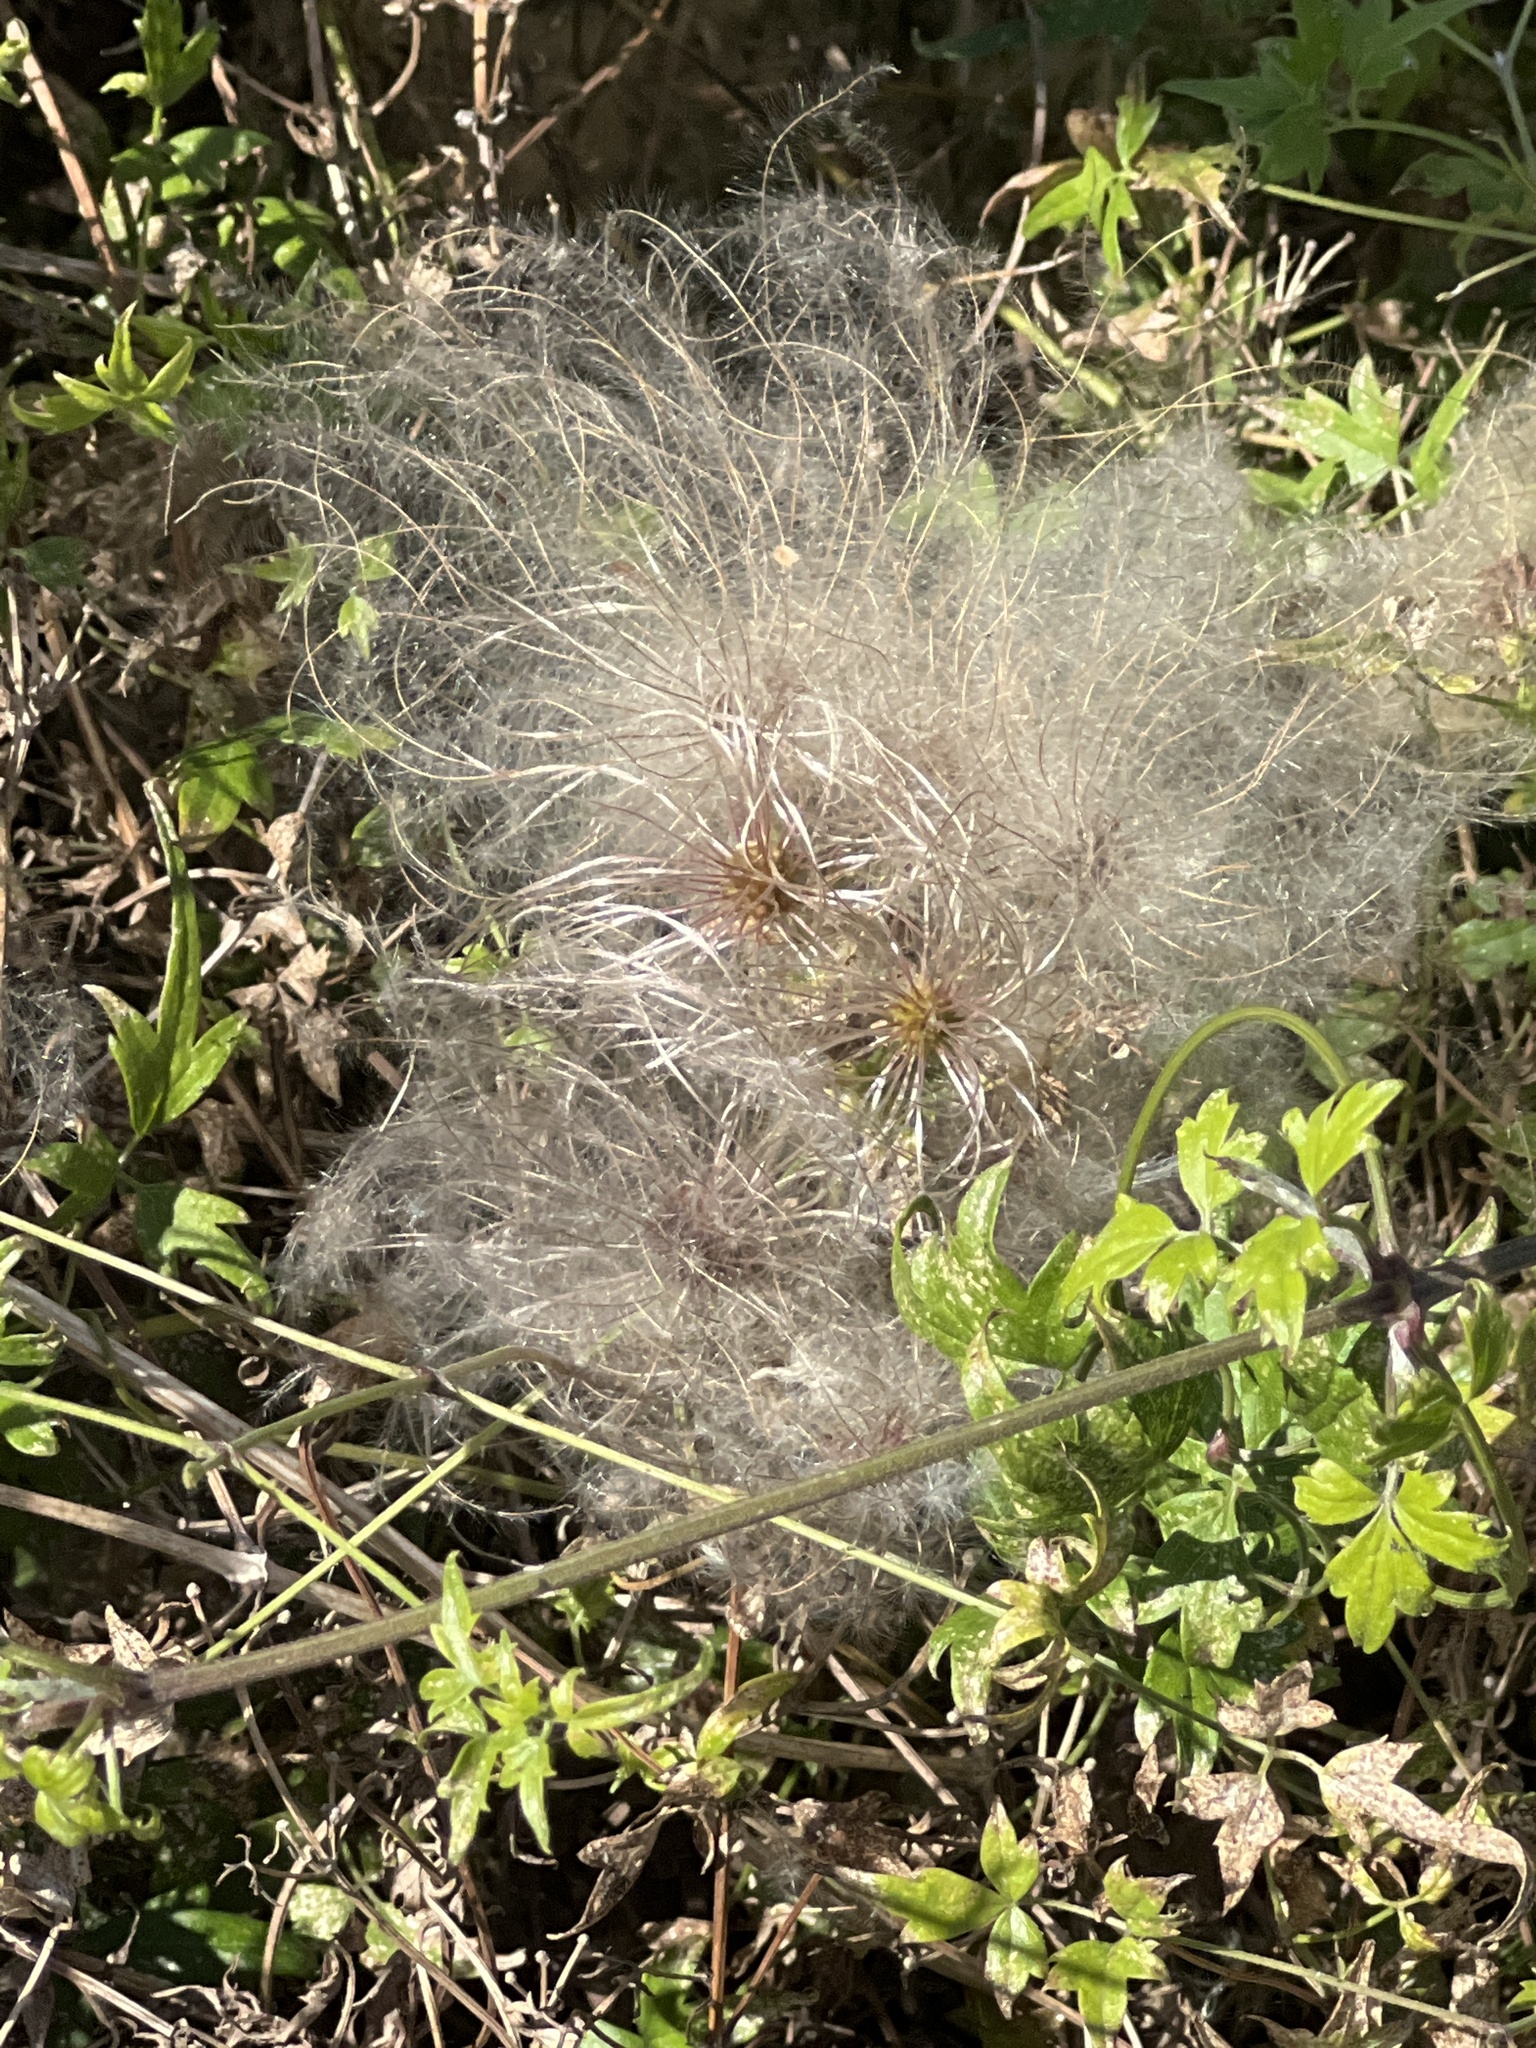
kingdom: Plantae
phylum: Tracheophyta
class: Magnoliopsida
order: Ranunculales
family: Ranunculaceae
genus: Clematis
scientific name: Clematis drummondii
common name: Texas virgin's bower
